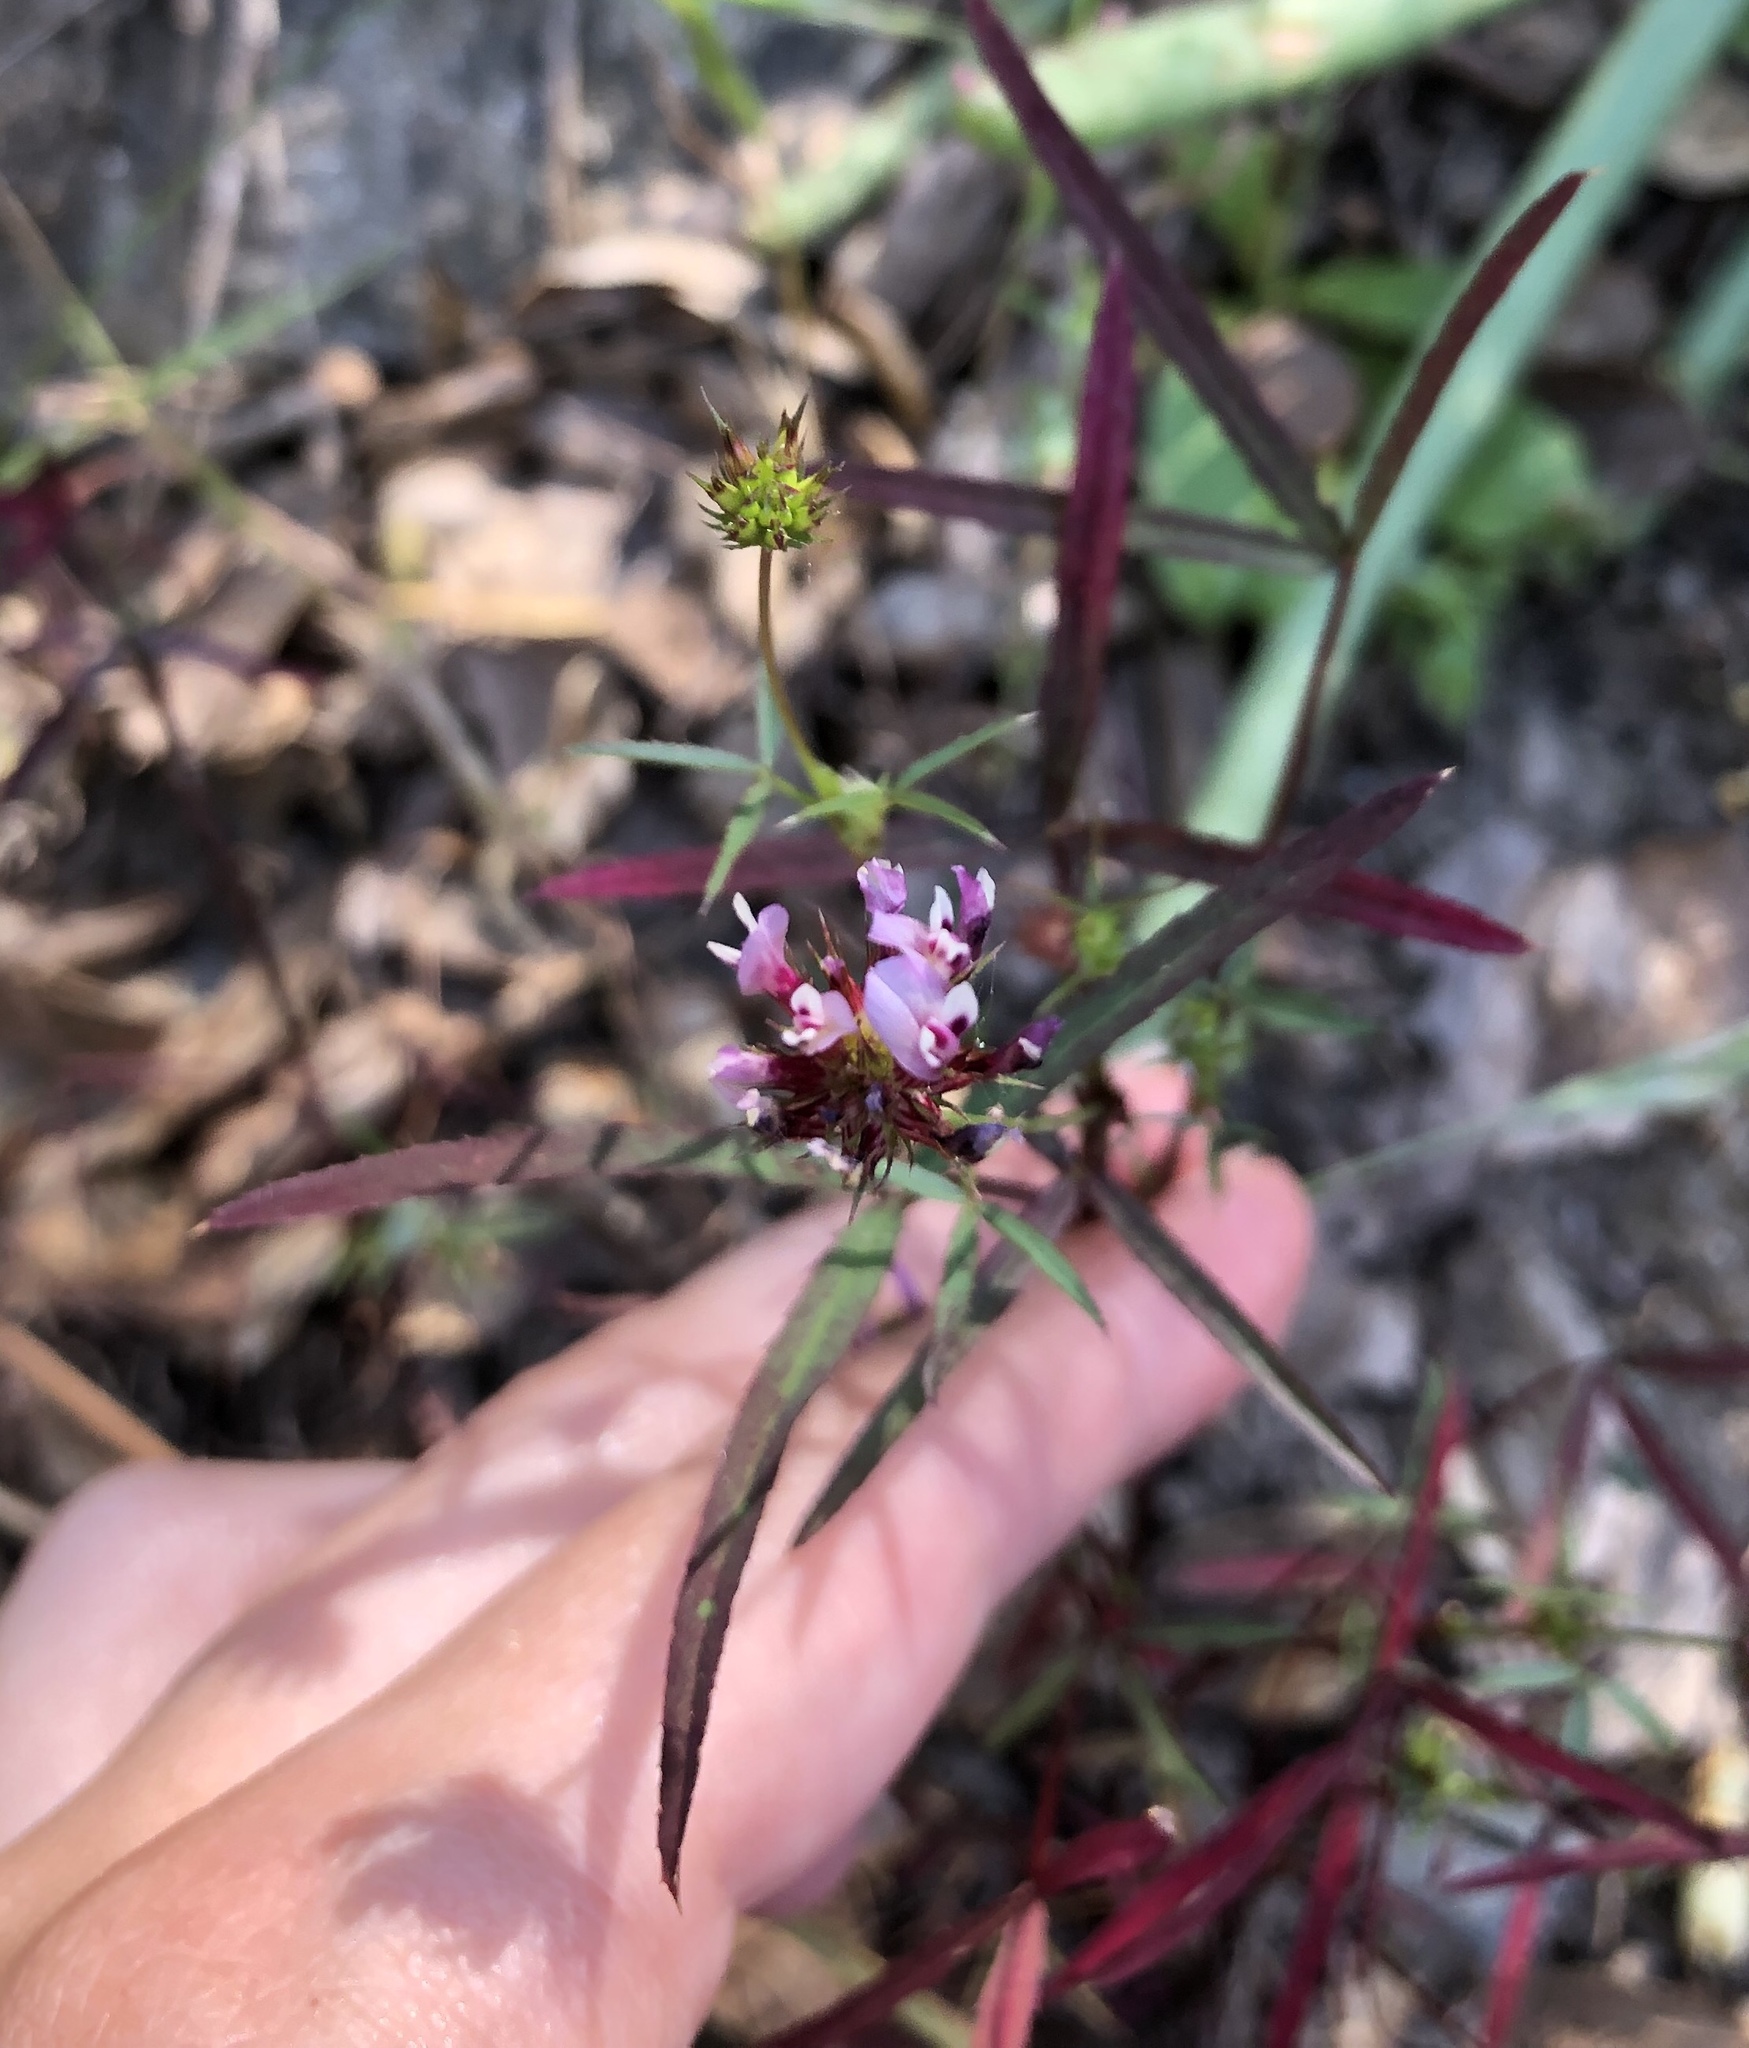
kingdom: Plantae
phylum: Tracheophyta
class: Magnoliopsida
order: Fabales
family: Fabaceae
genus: Trifolium
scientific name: Trifolium willdenovii
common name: Tomcat clover
